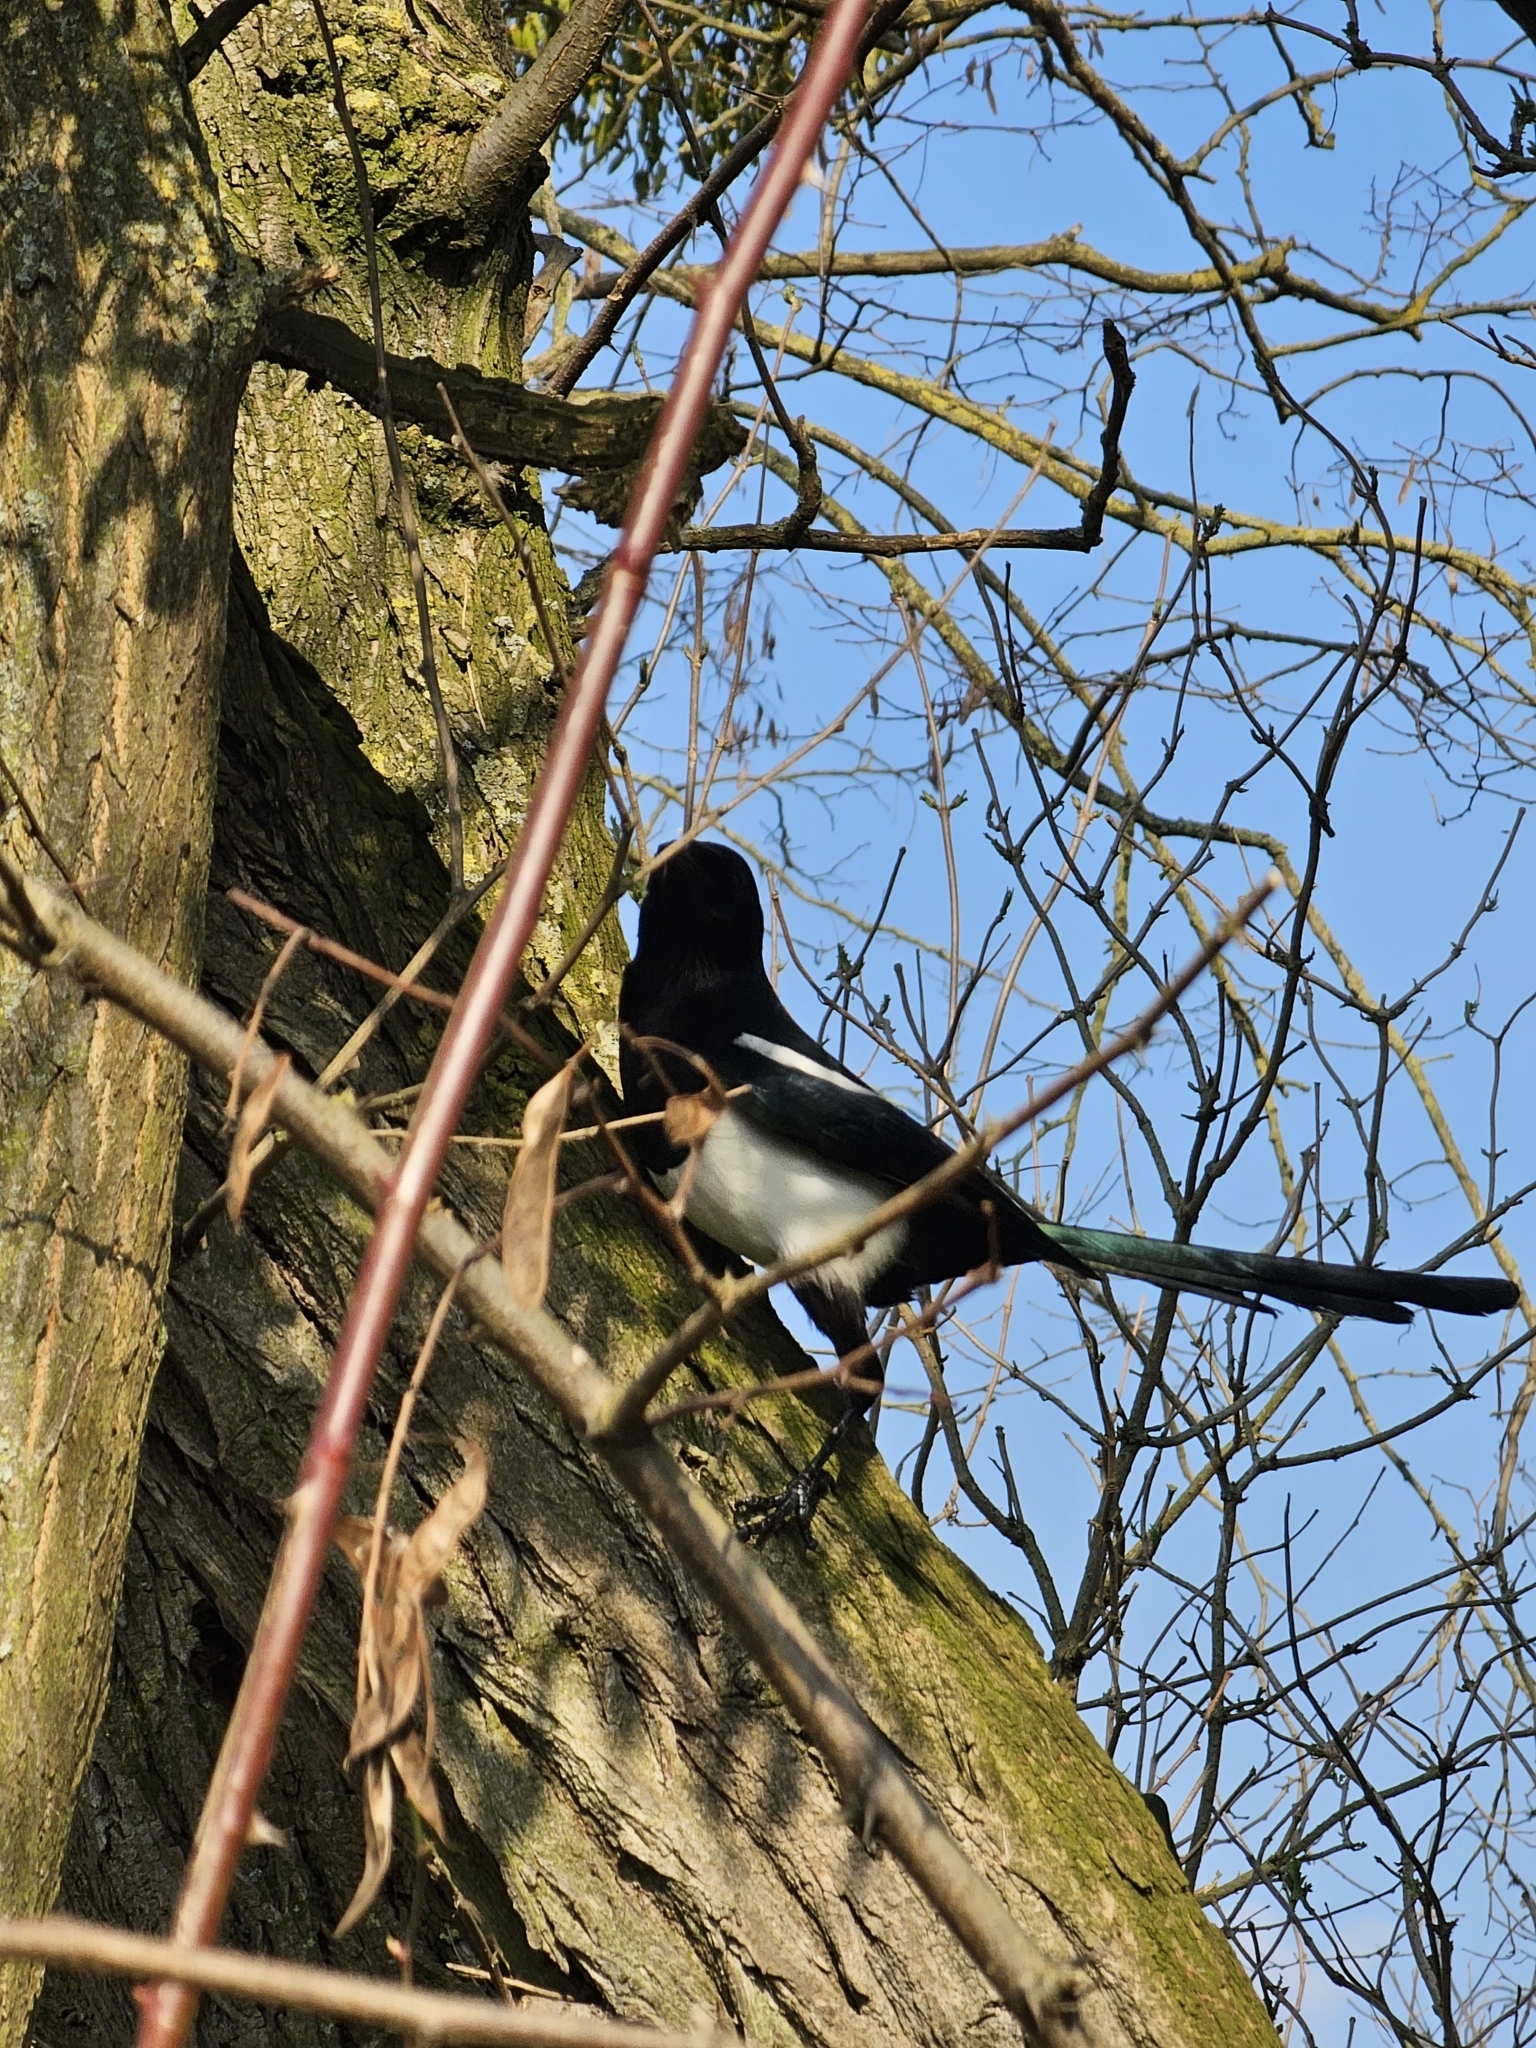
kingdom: Animalia
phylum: Chordata
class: Aves
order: Passeriformes
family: Corvidae
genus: Pica
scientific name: Pica pica
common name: Eurasian magpie
